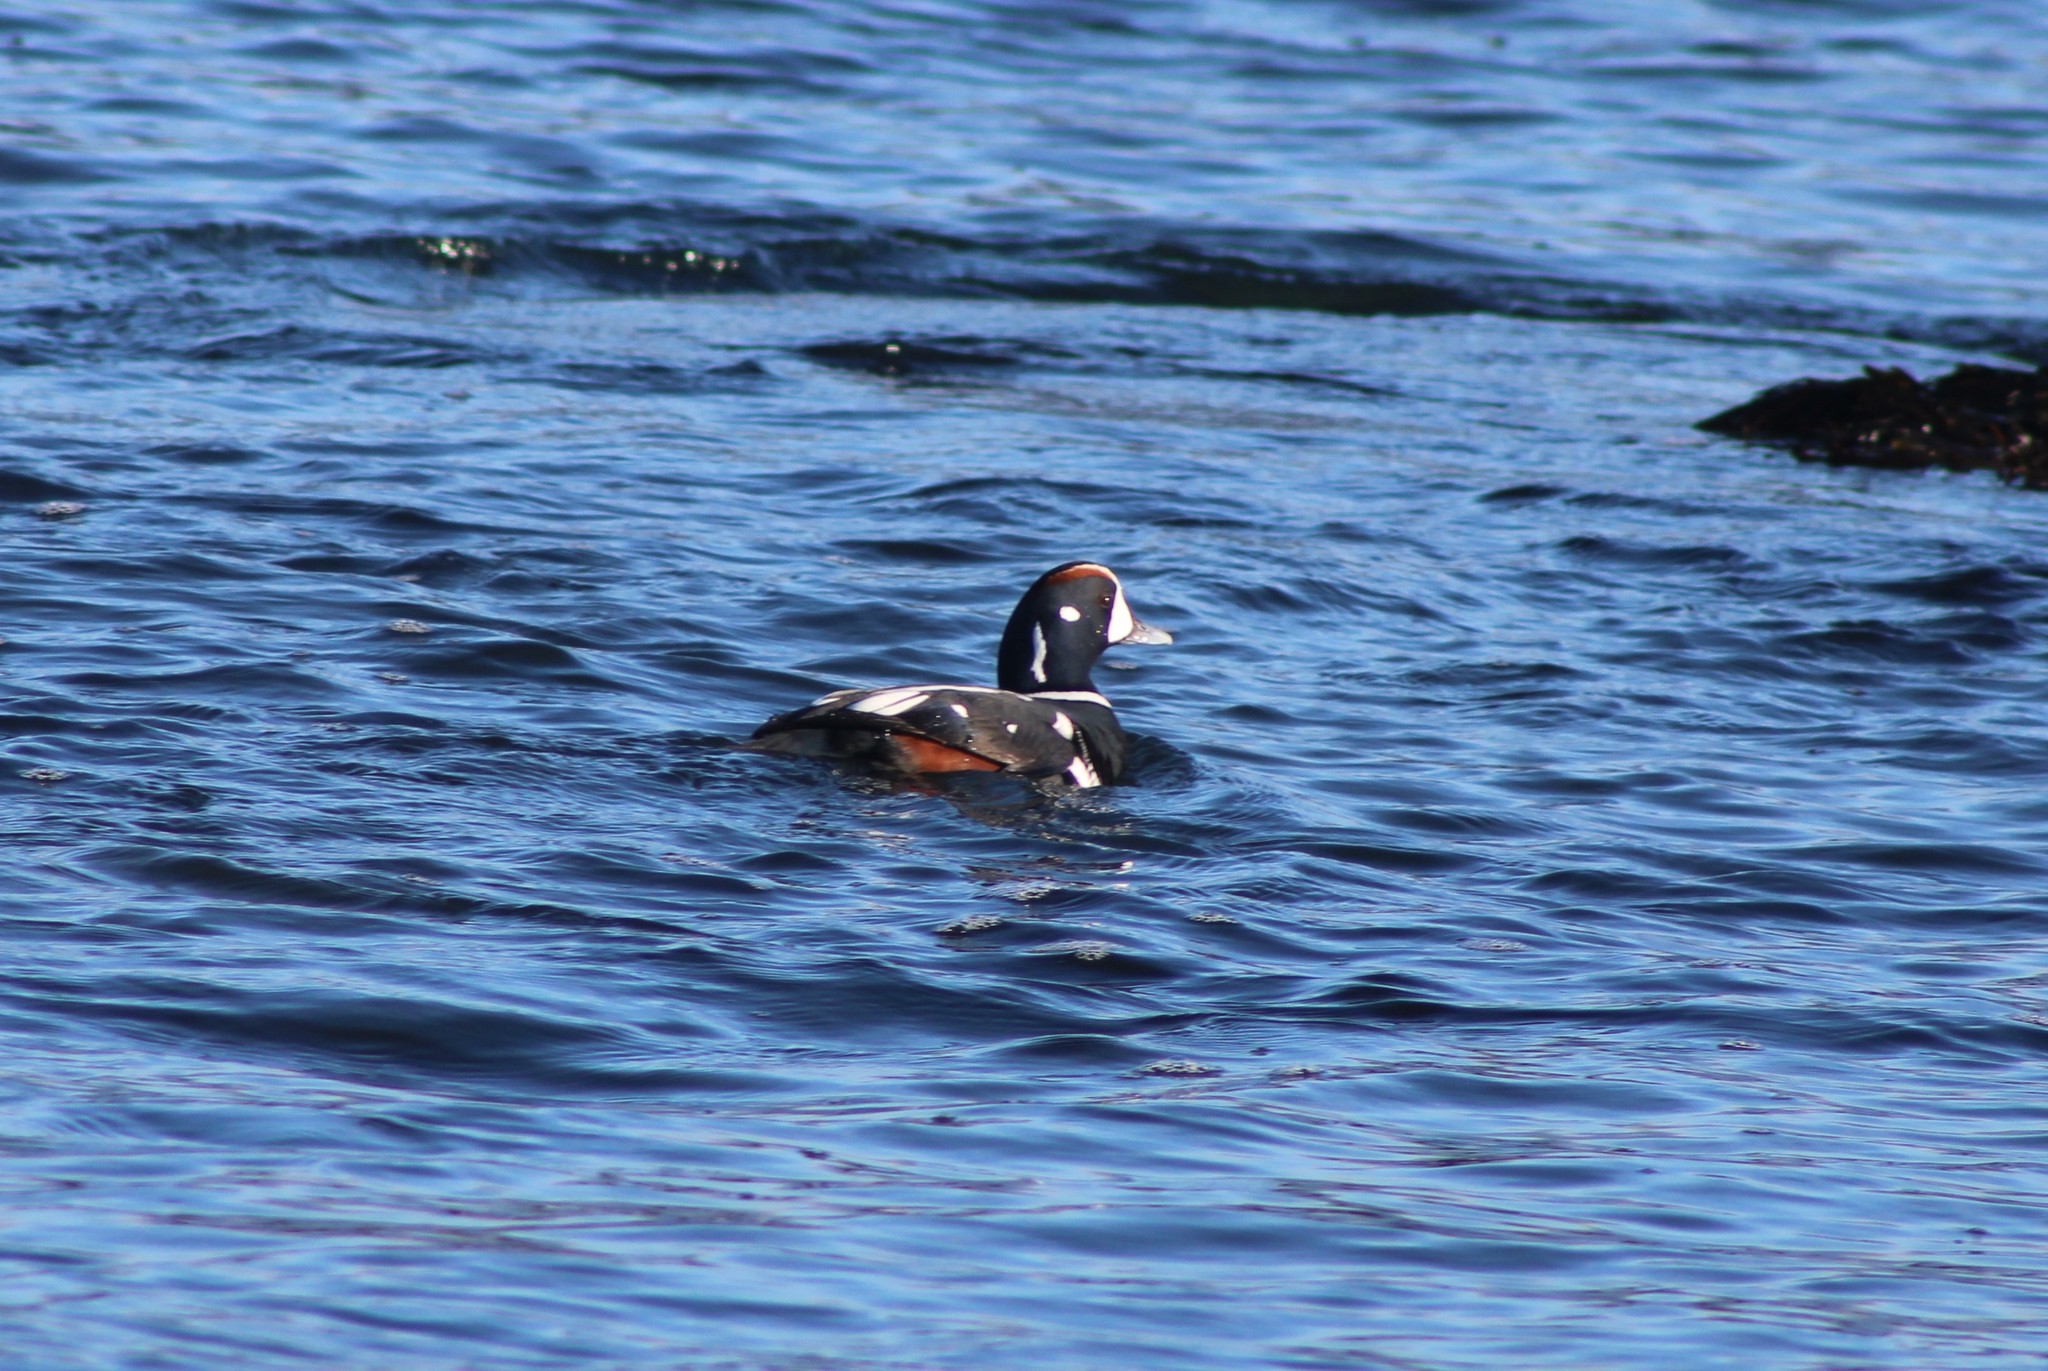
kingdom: Animalia
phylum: Chordata
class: Aves
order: Anseriformes
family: Anatidae
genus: Histrionicus
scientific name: Histrionicus histrionicus
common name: Harlequin duck
